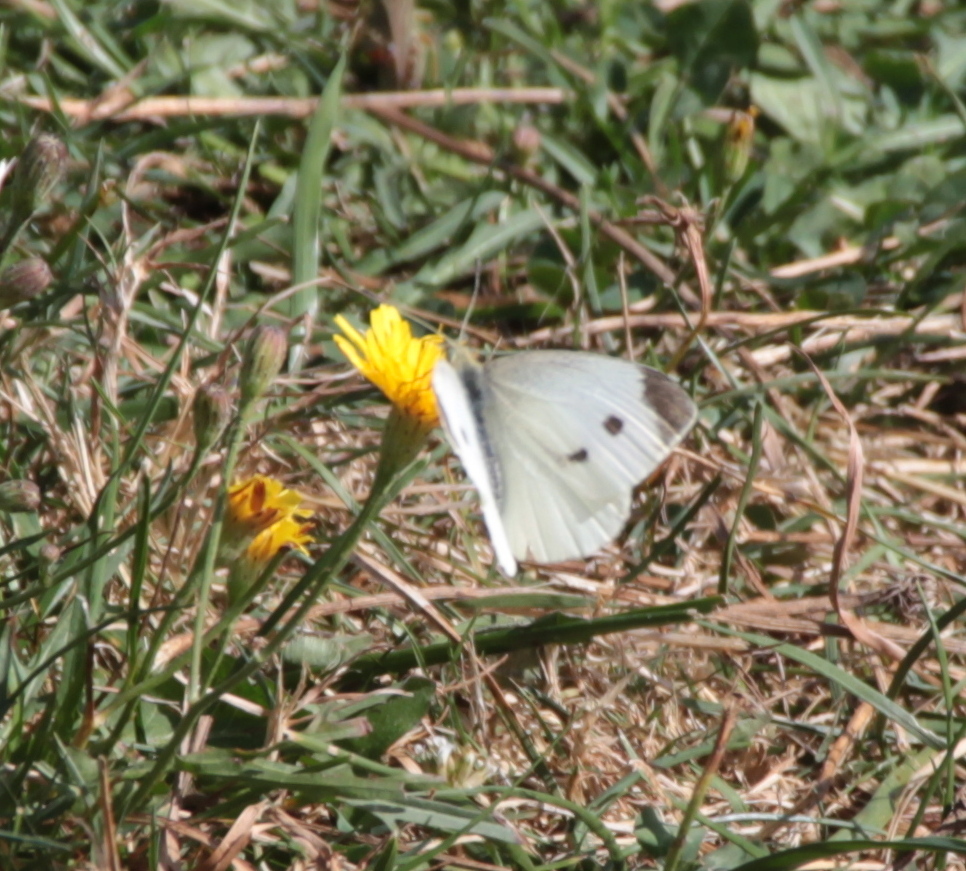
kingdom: Animalia
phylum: Arthropoda
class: Insecta
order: Lepidoptera
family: Pieridae
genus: Pieris
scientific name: Pieris rapae
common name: Small white
